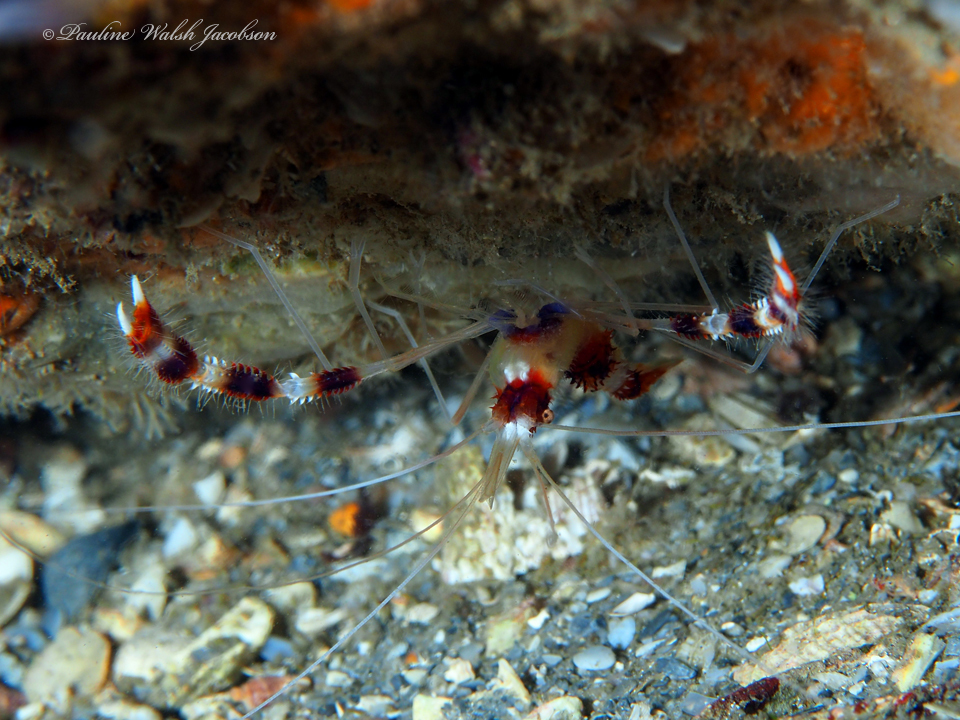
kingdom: Animalia
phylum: Arthropoda
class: Malacostraca
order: Decapoda
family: Stenopodidae
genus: Stenopus
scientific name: Stenopus hispidus
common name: Banded coral shrimp
